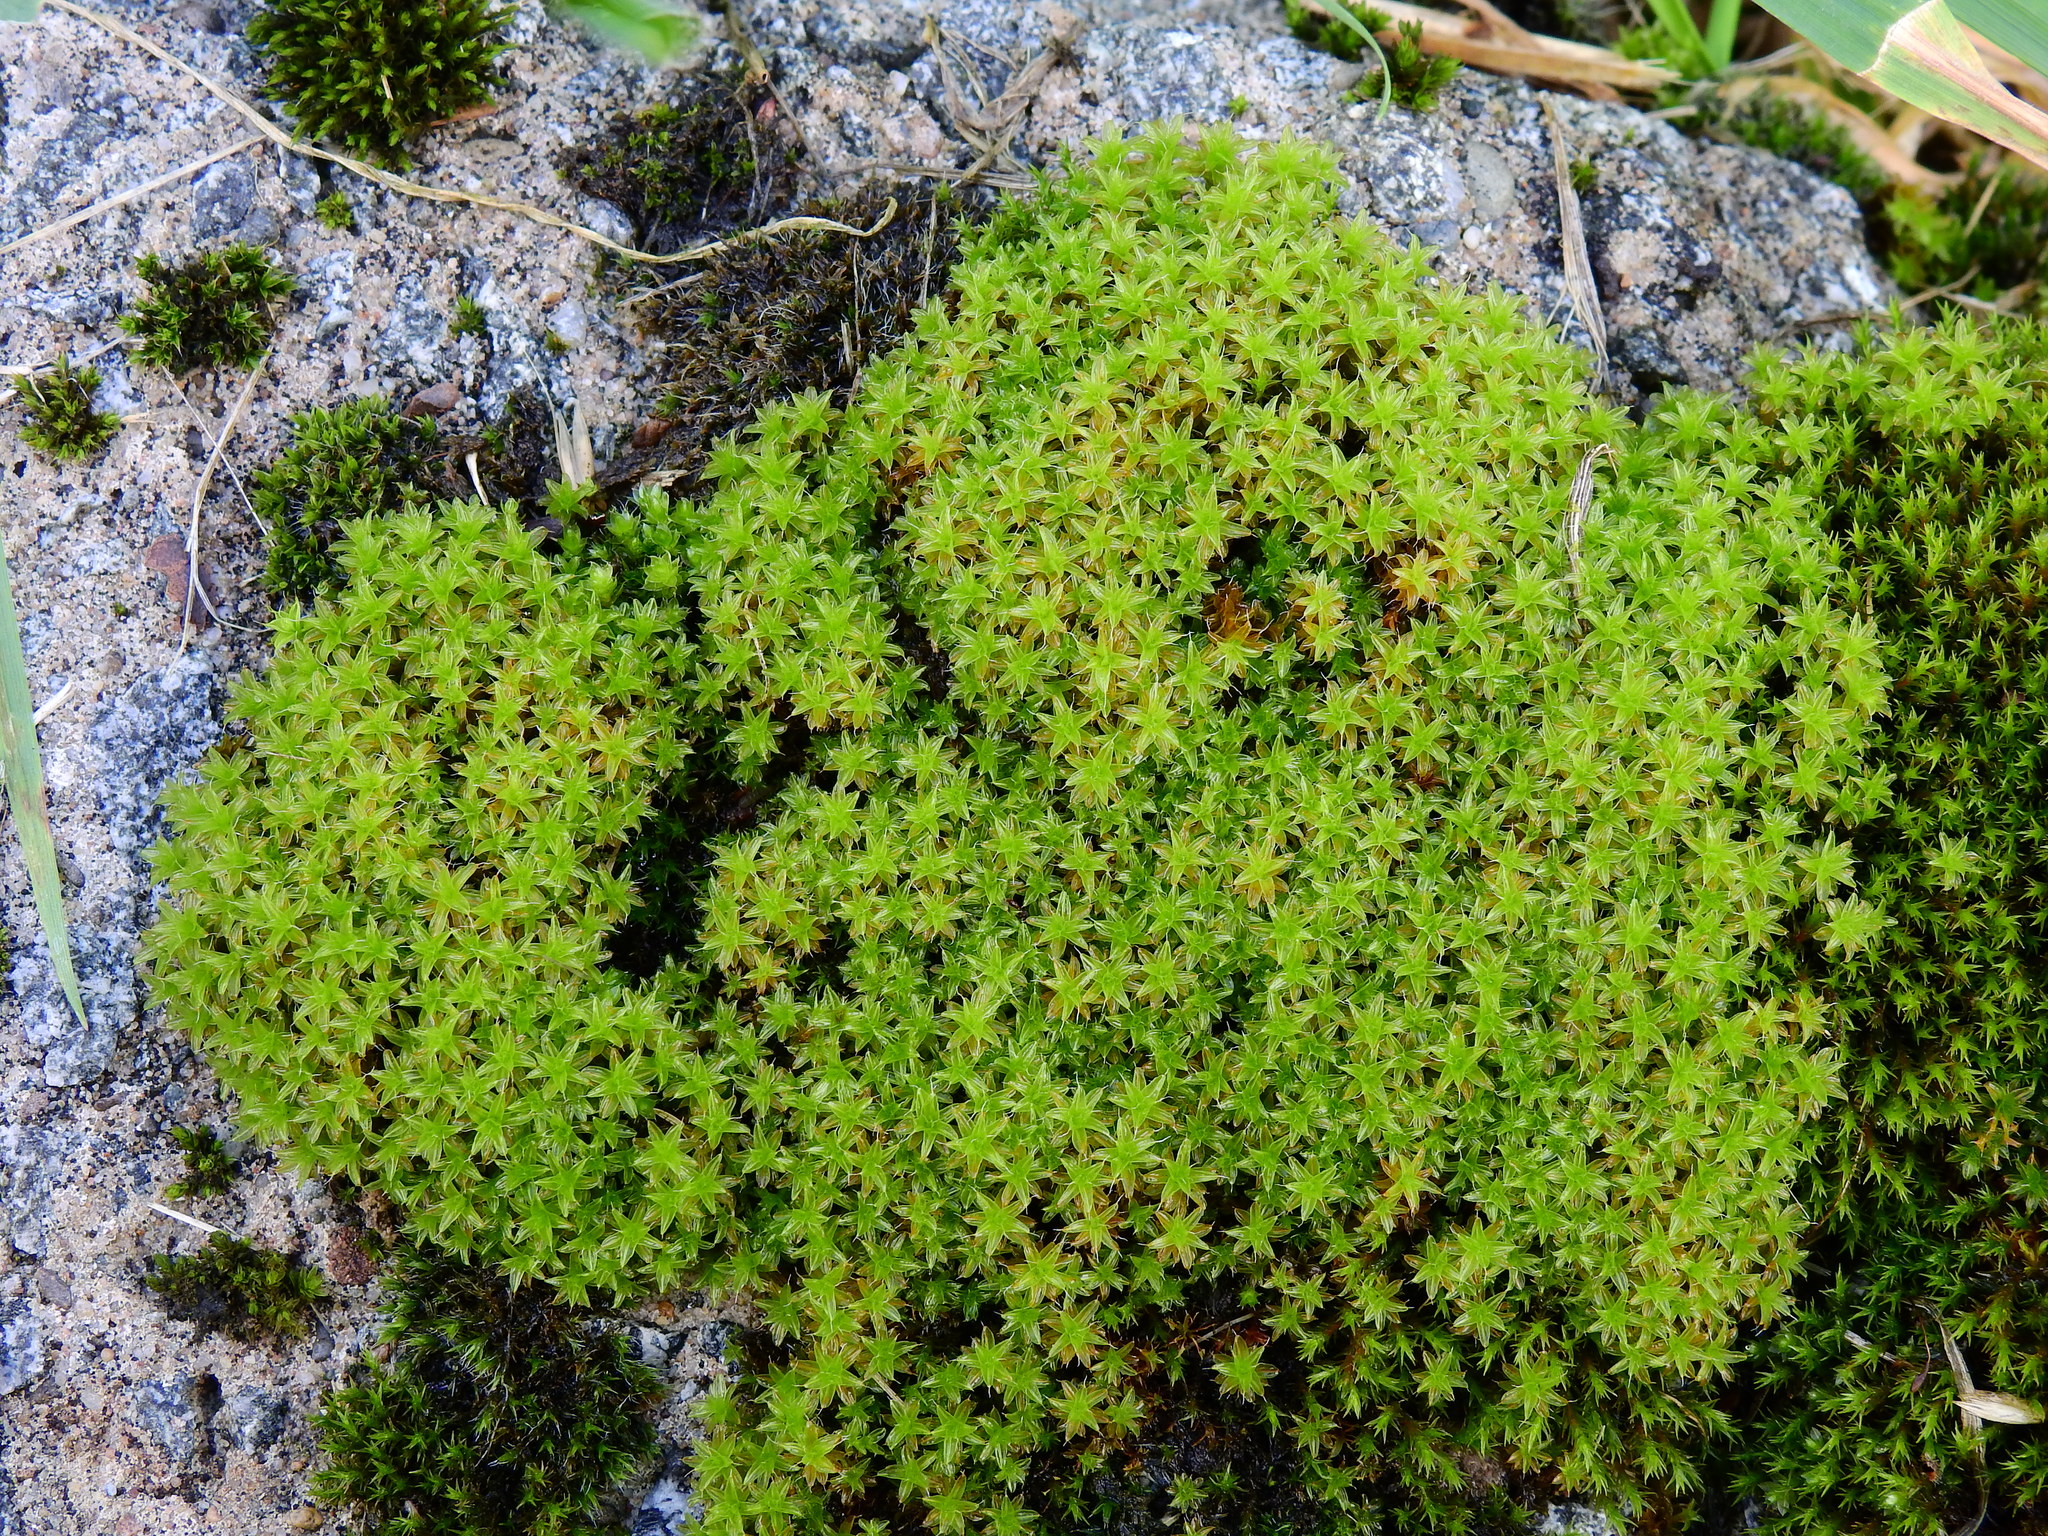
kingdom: Plantae
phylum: Bryophyta
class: Bryopsida
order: Pottiales
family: Pottiaceae
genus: Syntrichia
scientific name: Syntrichia ruralis
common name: Sidewalk screw moss
